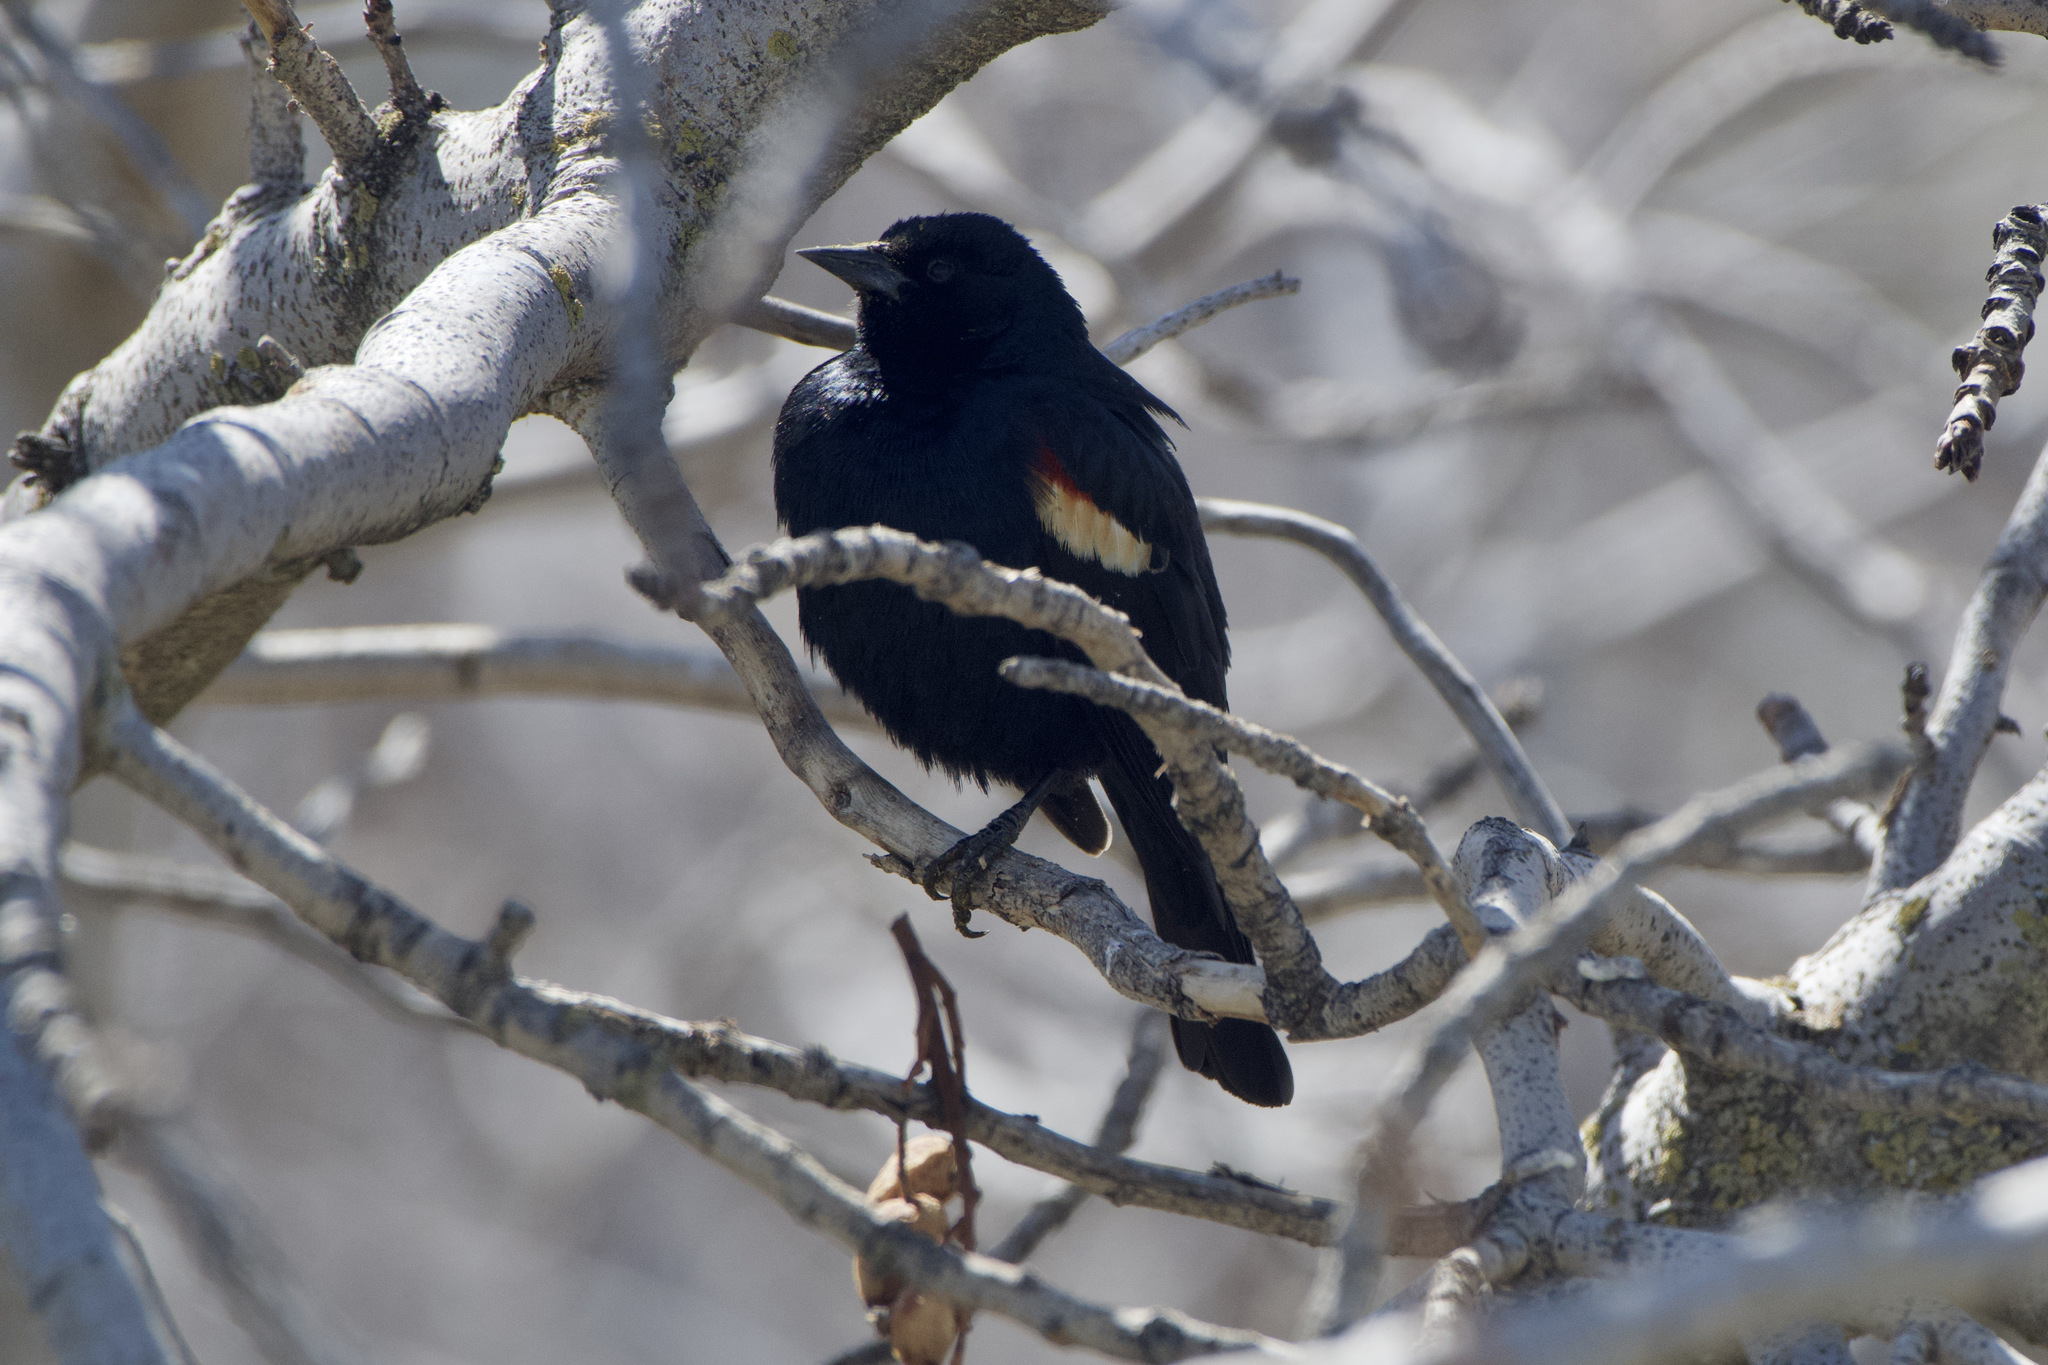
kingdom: Animalia
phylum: Chordata
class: Aves
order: Passeriformes
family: Icteridae
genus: Agelaius
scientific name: Agelaius tricolor
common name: Tricolored blackbird
